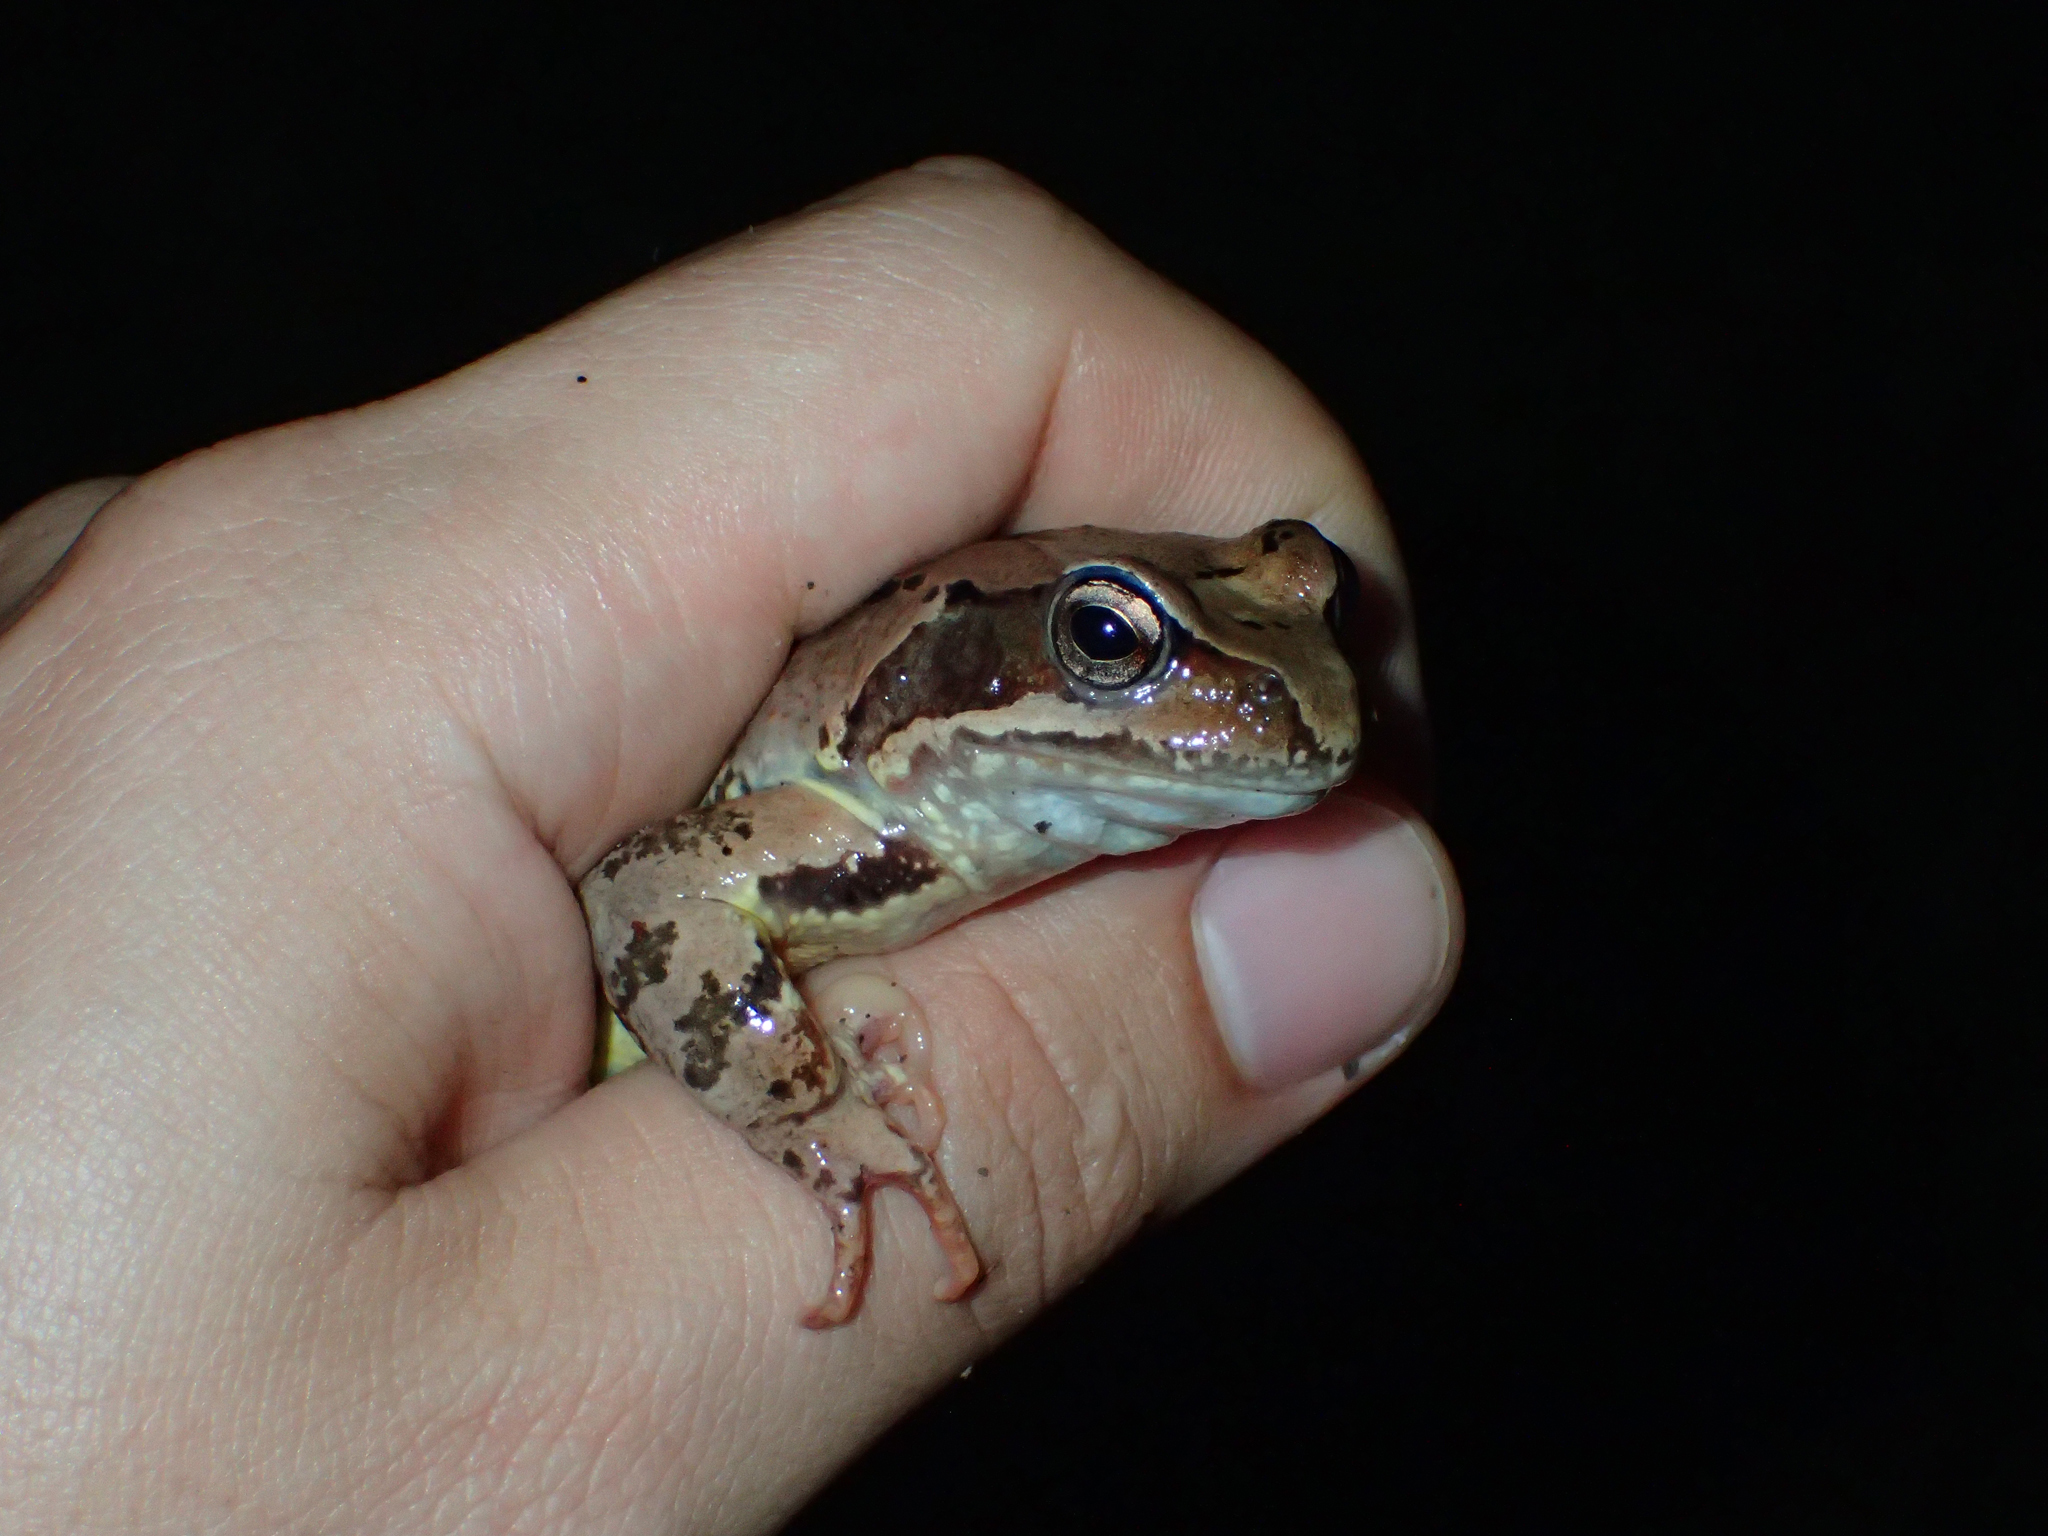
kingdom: Animalia
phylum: Chordata
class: Amphibia
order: Anura
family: Ranidae
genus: Rana
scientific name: Rana temporaria
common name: Common frog
